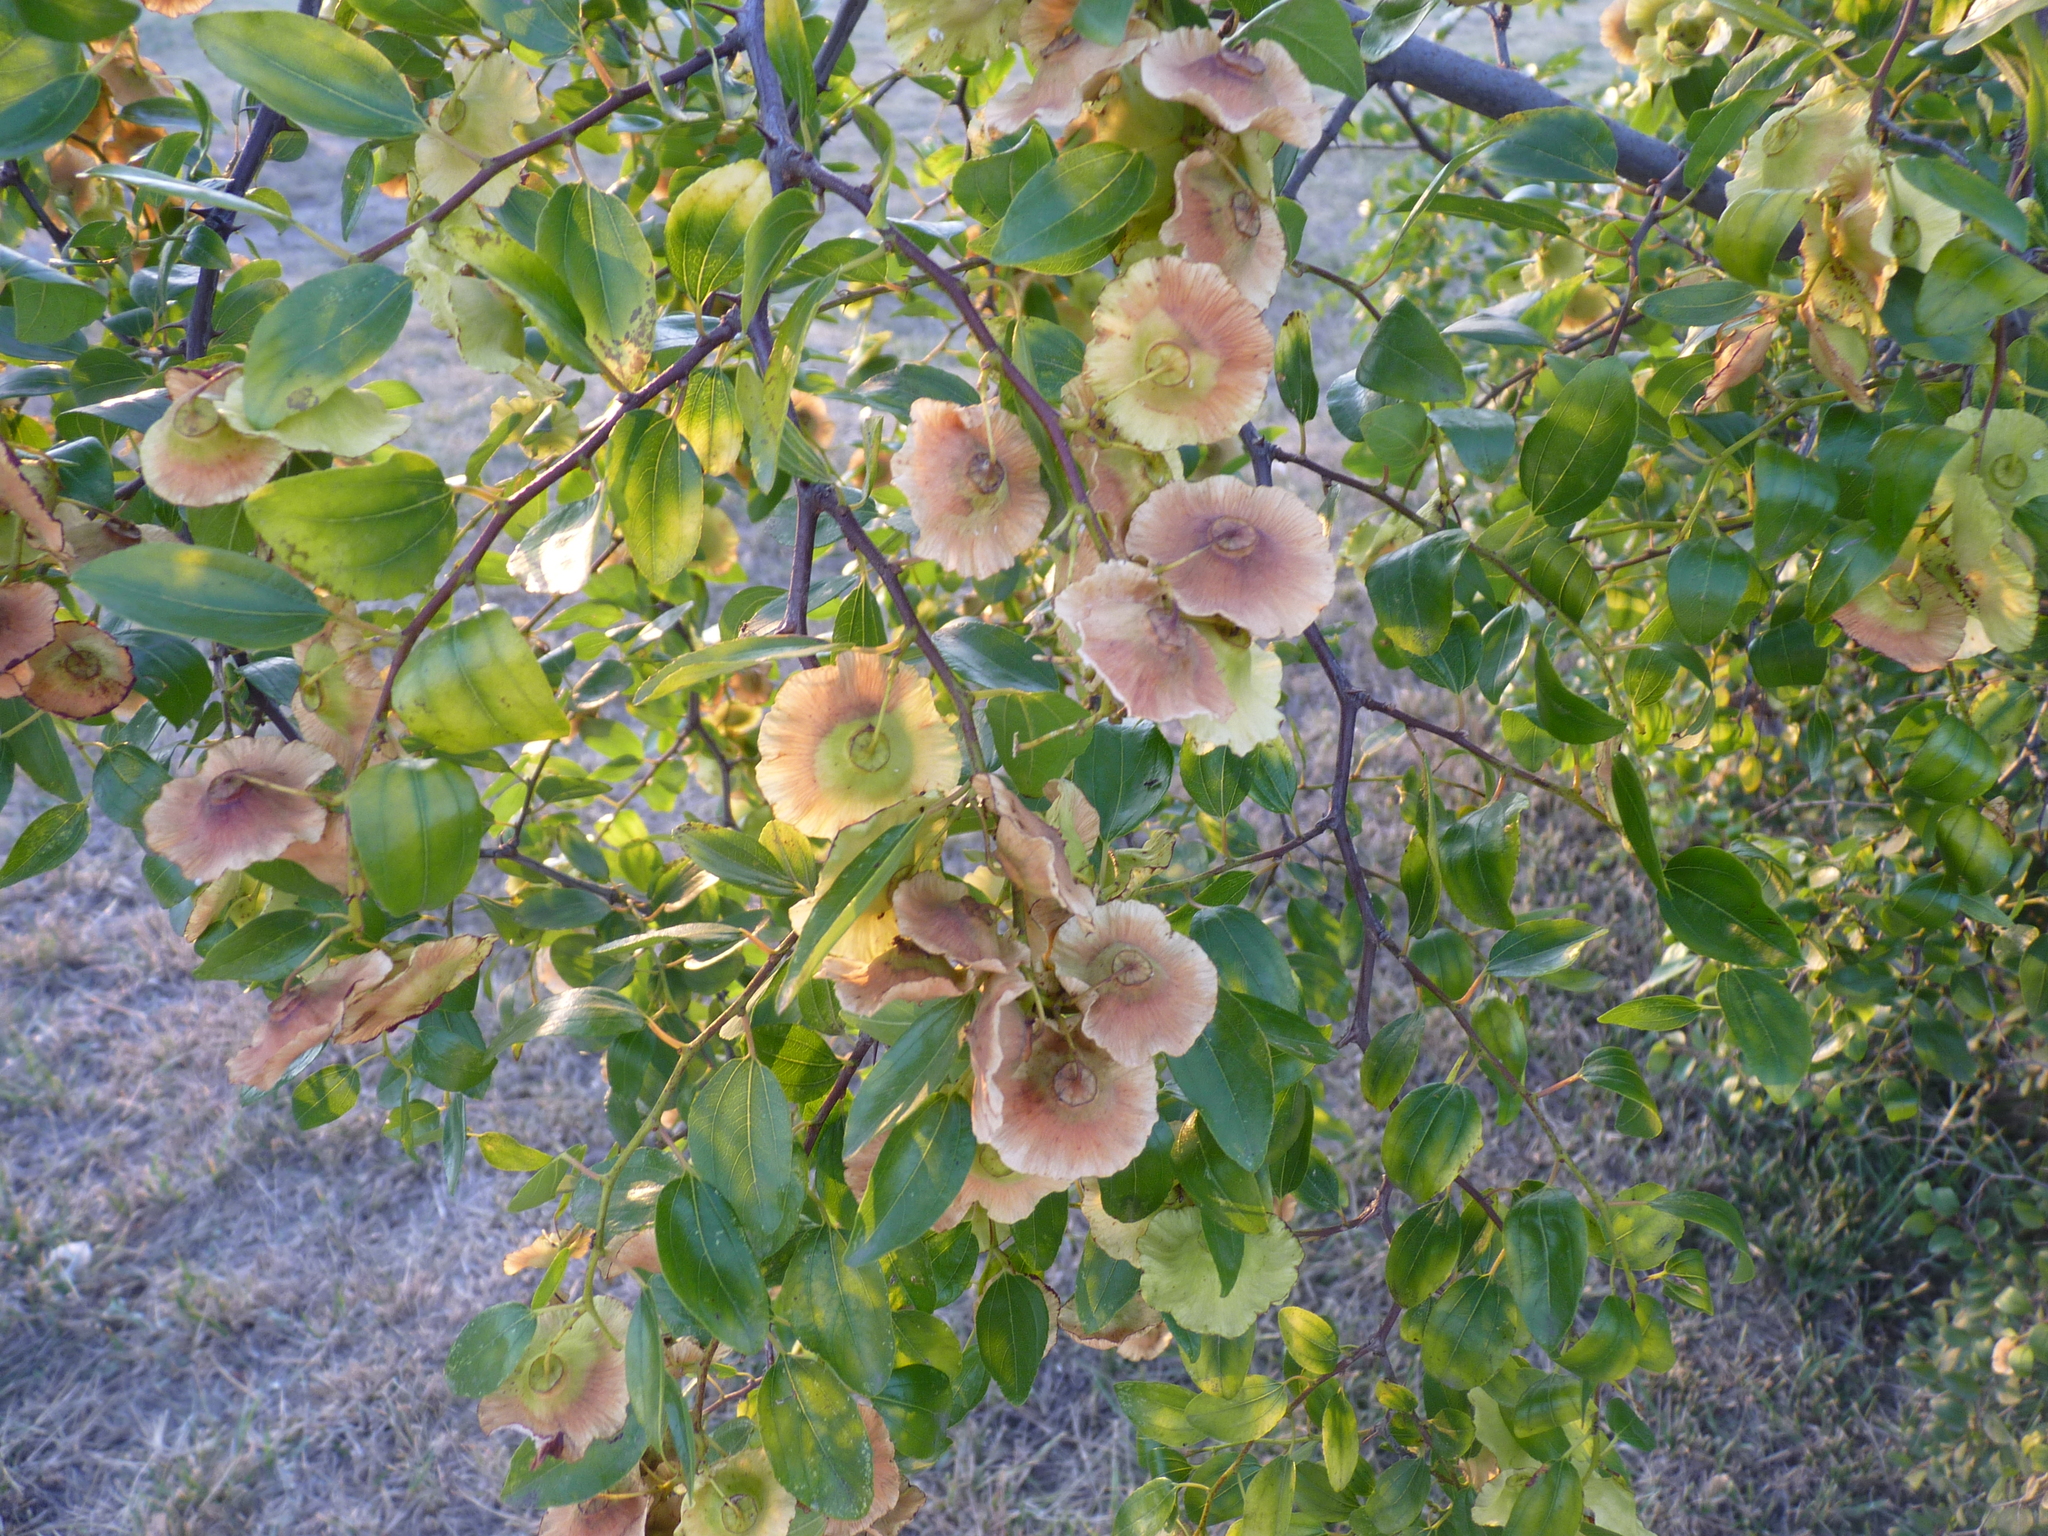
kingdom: Plantae
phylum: Tracheophyta
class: Magnoliopsida
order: Rosales
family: Rhamnaceae
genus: Paliurus
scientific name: Paliurus spina-christi
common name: Jeruselem thorn
